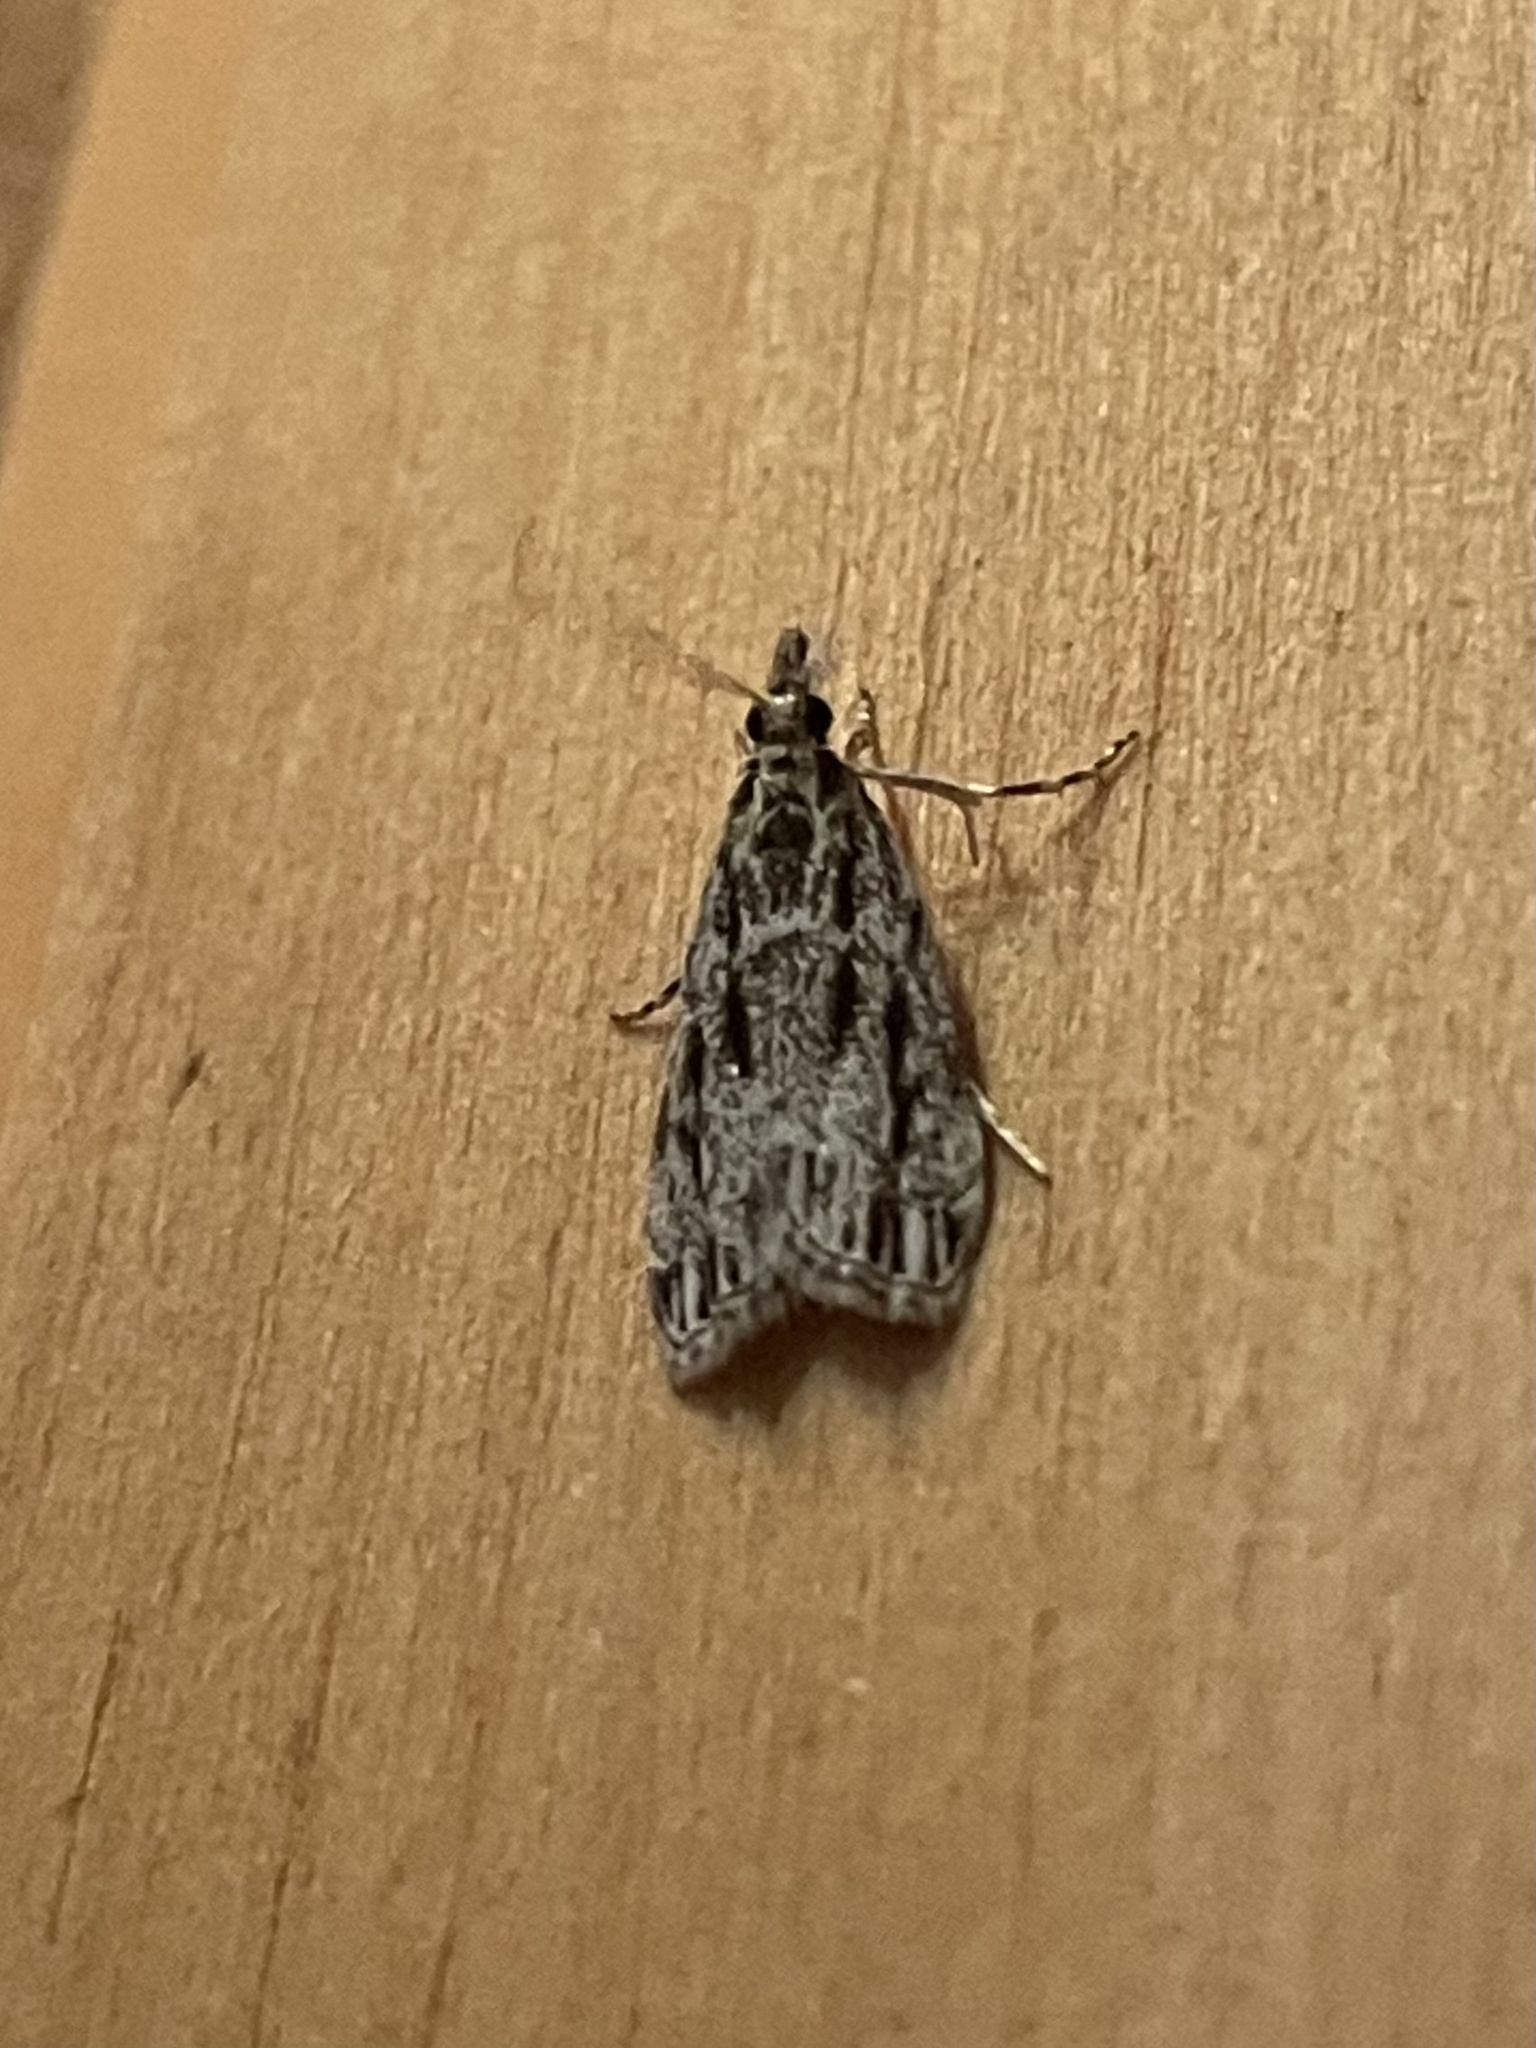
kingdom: Animalia
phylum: Arthropoda
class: Insecta
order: Lepidoptera
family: Crambidae
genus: Eudonia
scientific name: Eudonia strigalis
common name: Striped eudonia moth
